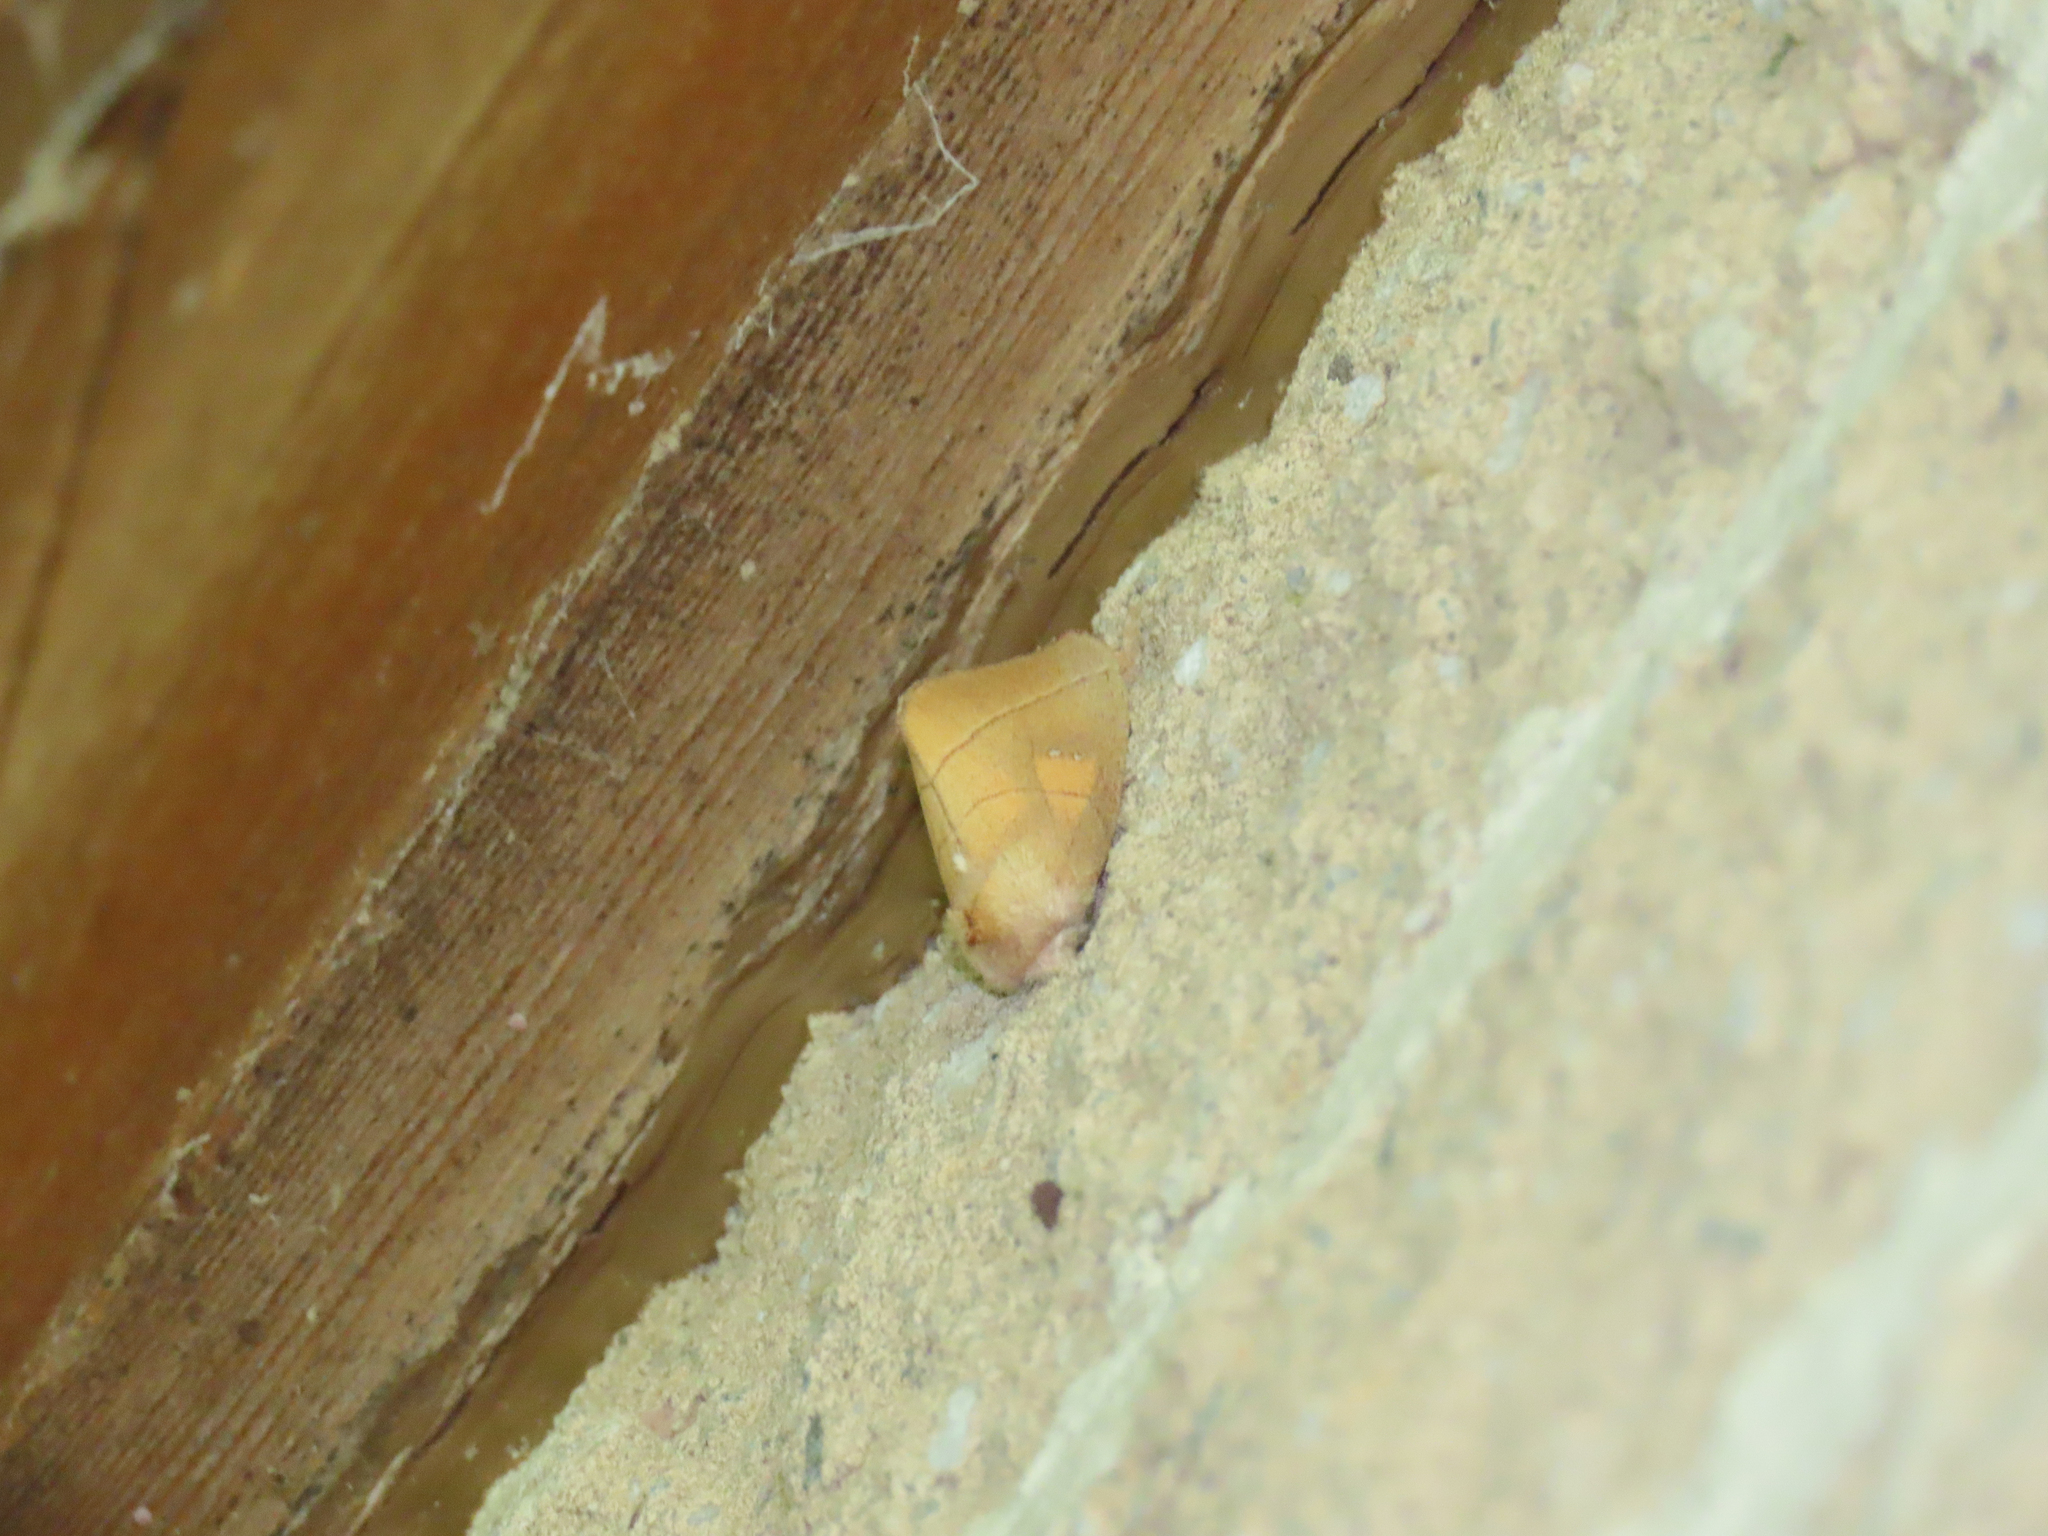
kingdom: Animalia
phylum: Arthropoda
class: Insecta
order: Lepidoptera
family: Notodontidae
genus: Nadata
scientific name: Nadata gibbosa
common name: White-dotted prominent
